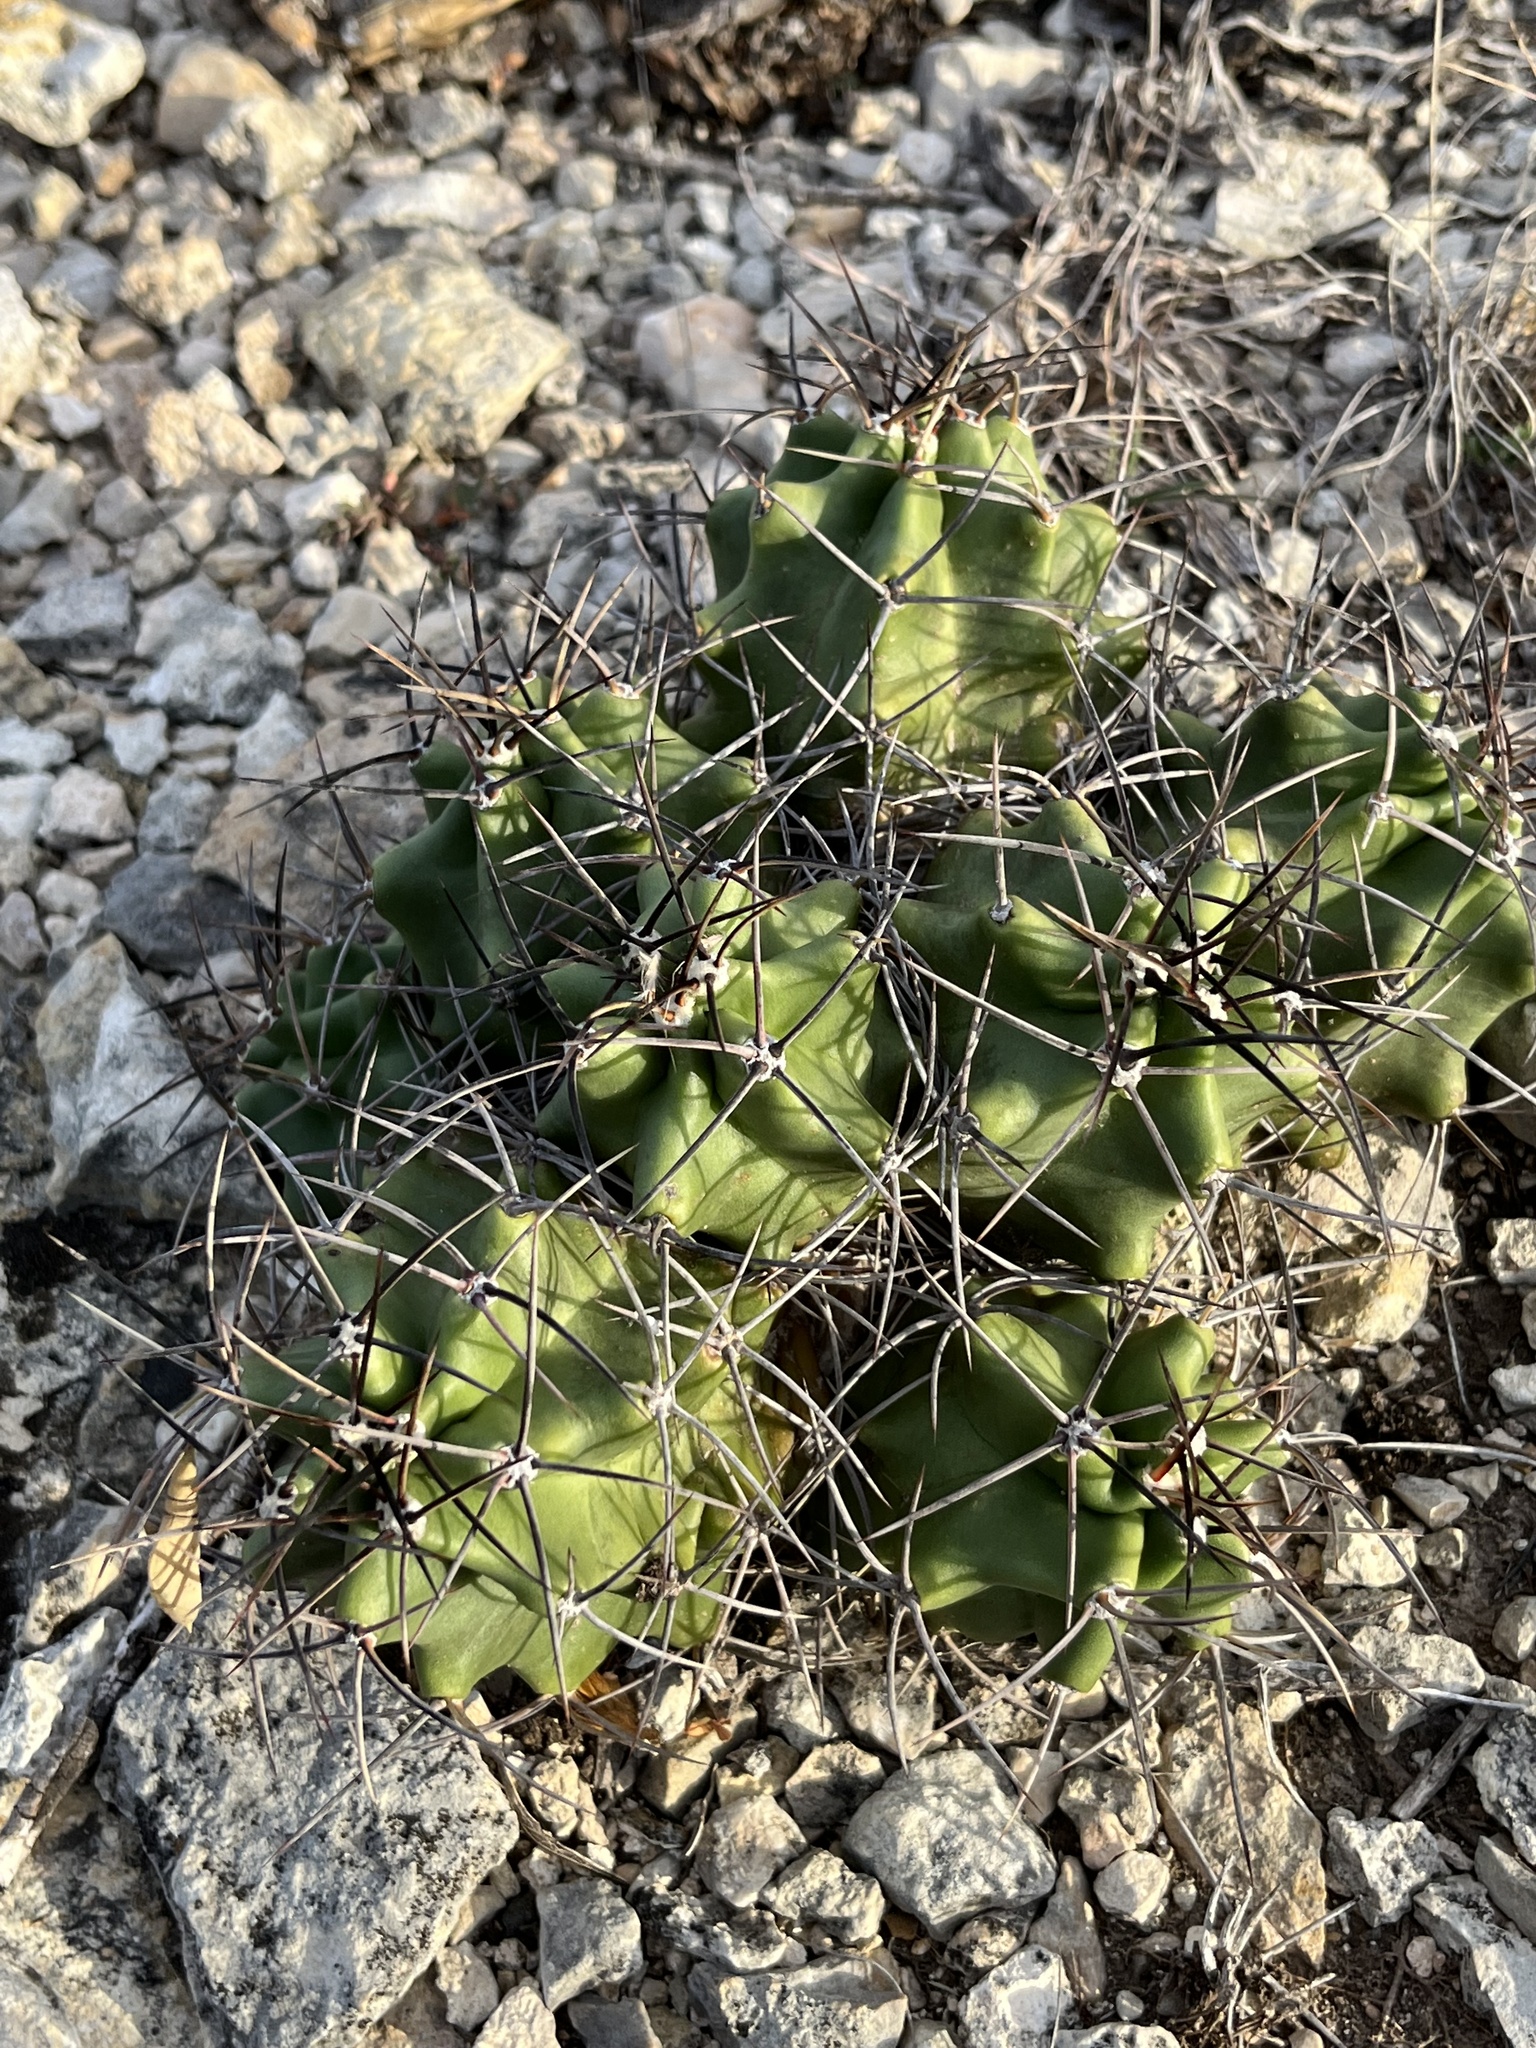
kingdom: Plantae
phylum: Tracheophyta
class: Magnoliopsida
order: Caryophyllales
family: Cactaceae
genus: Echinocereus
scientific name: Echinocereus coccineus
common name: Scarlet hedgehog cactus
